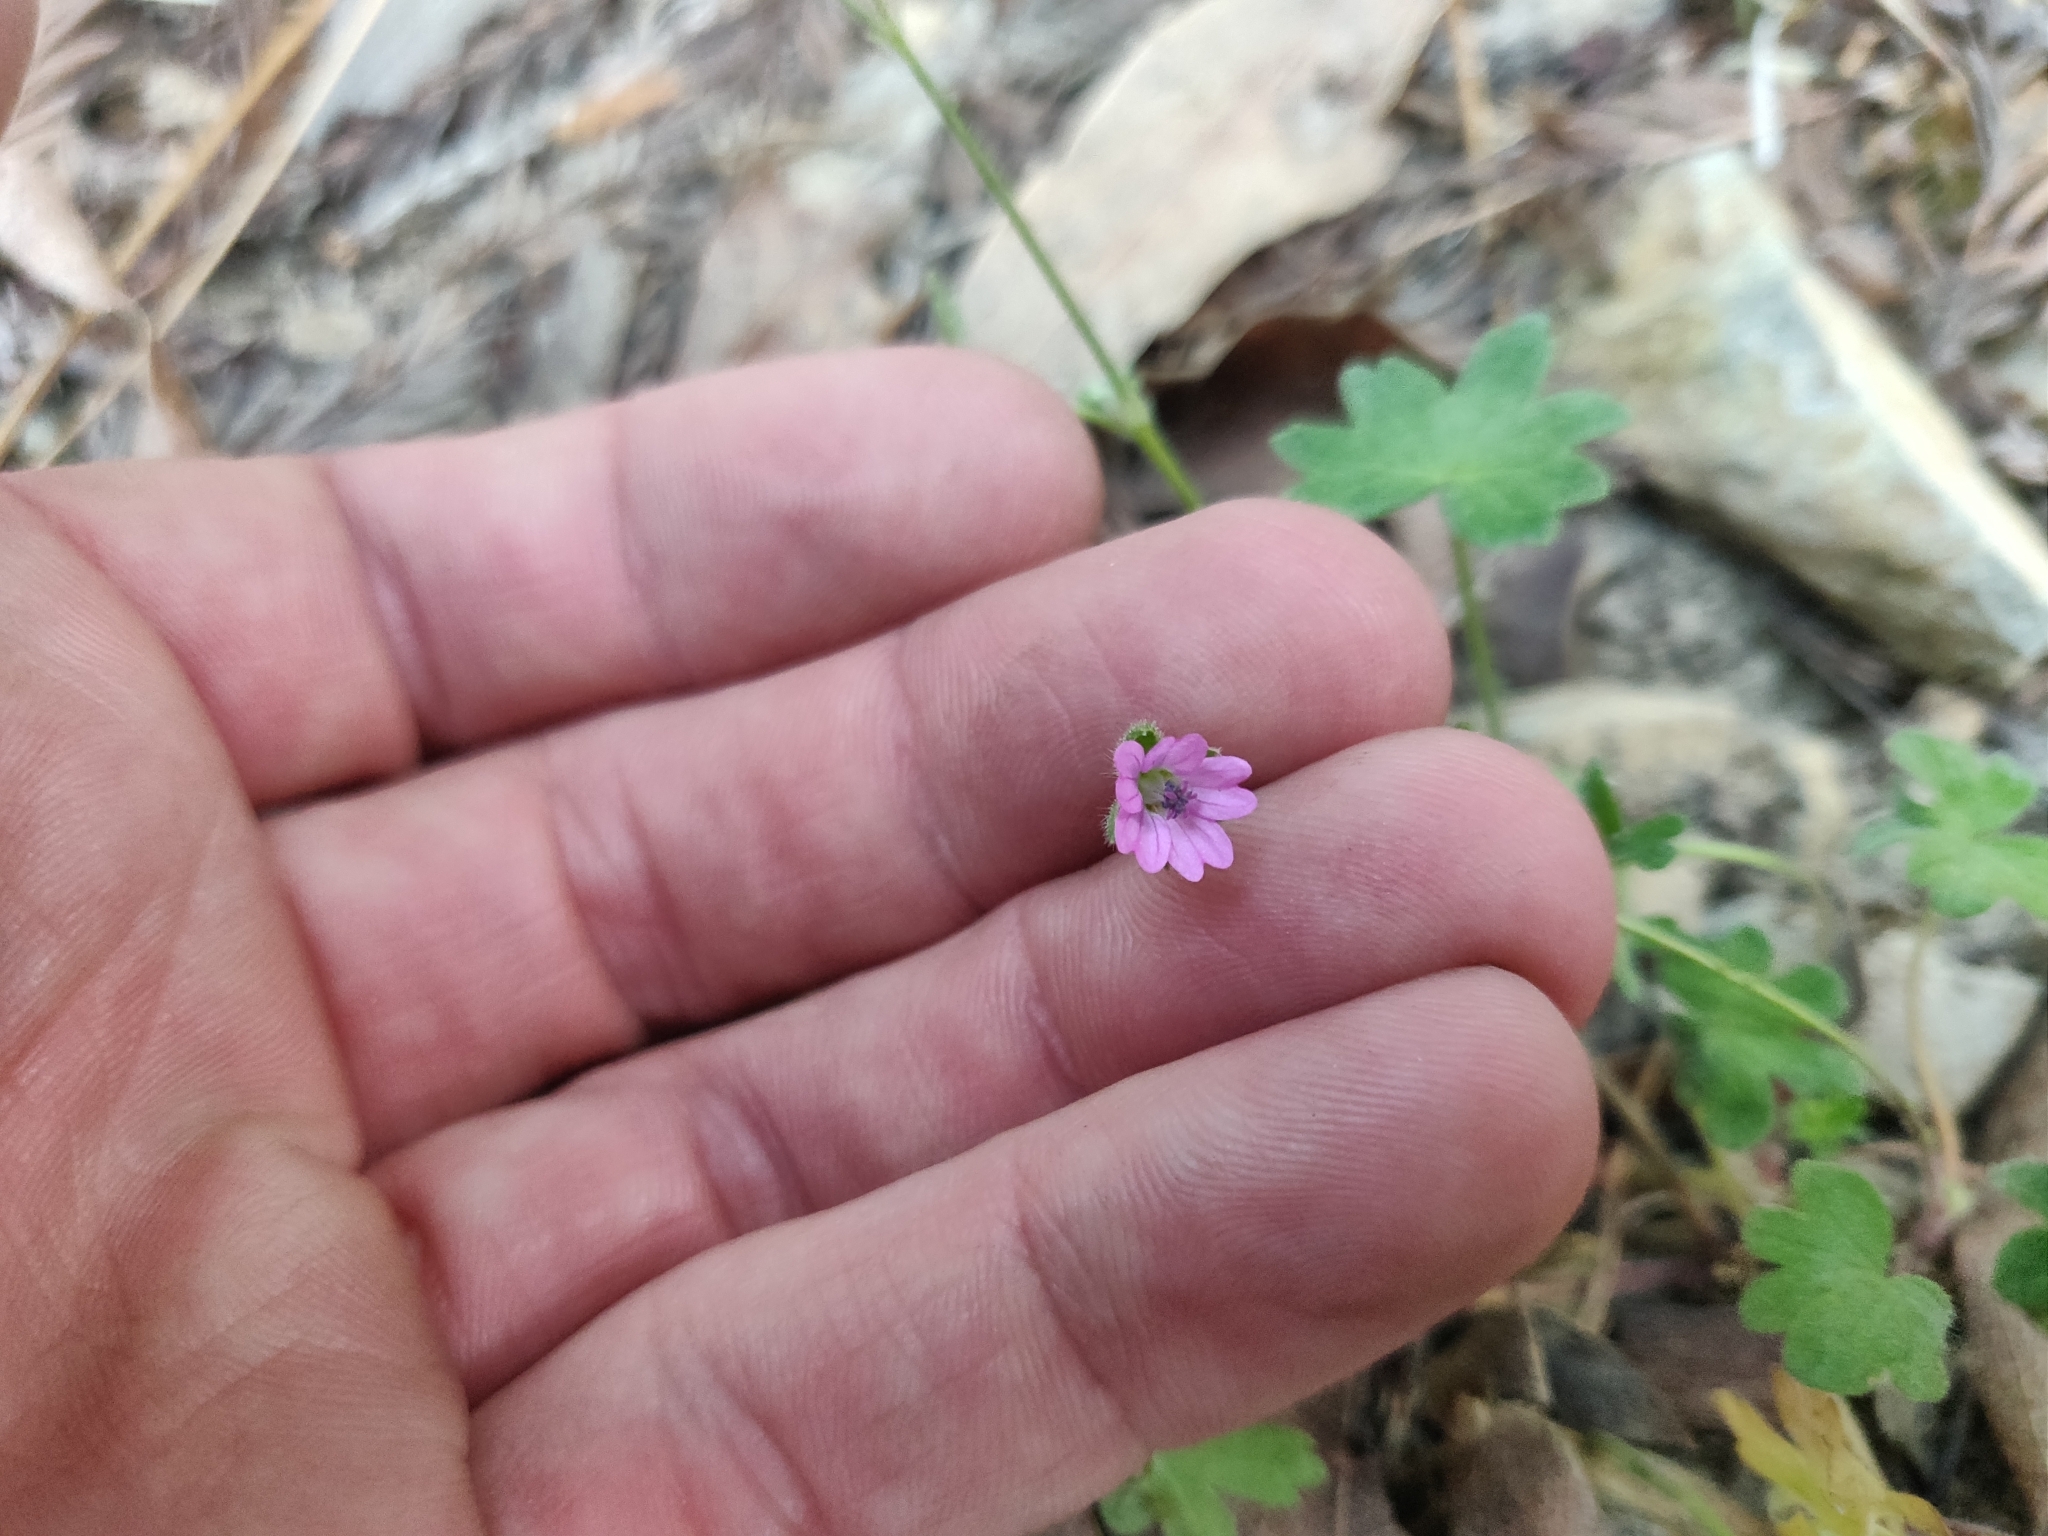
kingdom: Plantae
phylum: Tracheophyta
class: Magnoliopsida
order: Geraniales
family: Geraniaceae
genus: Geranium
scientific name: Geranium molle
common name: Dove's-foot crane's-bill
